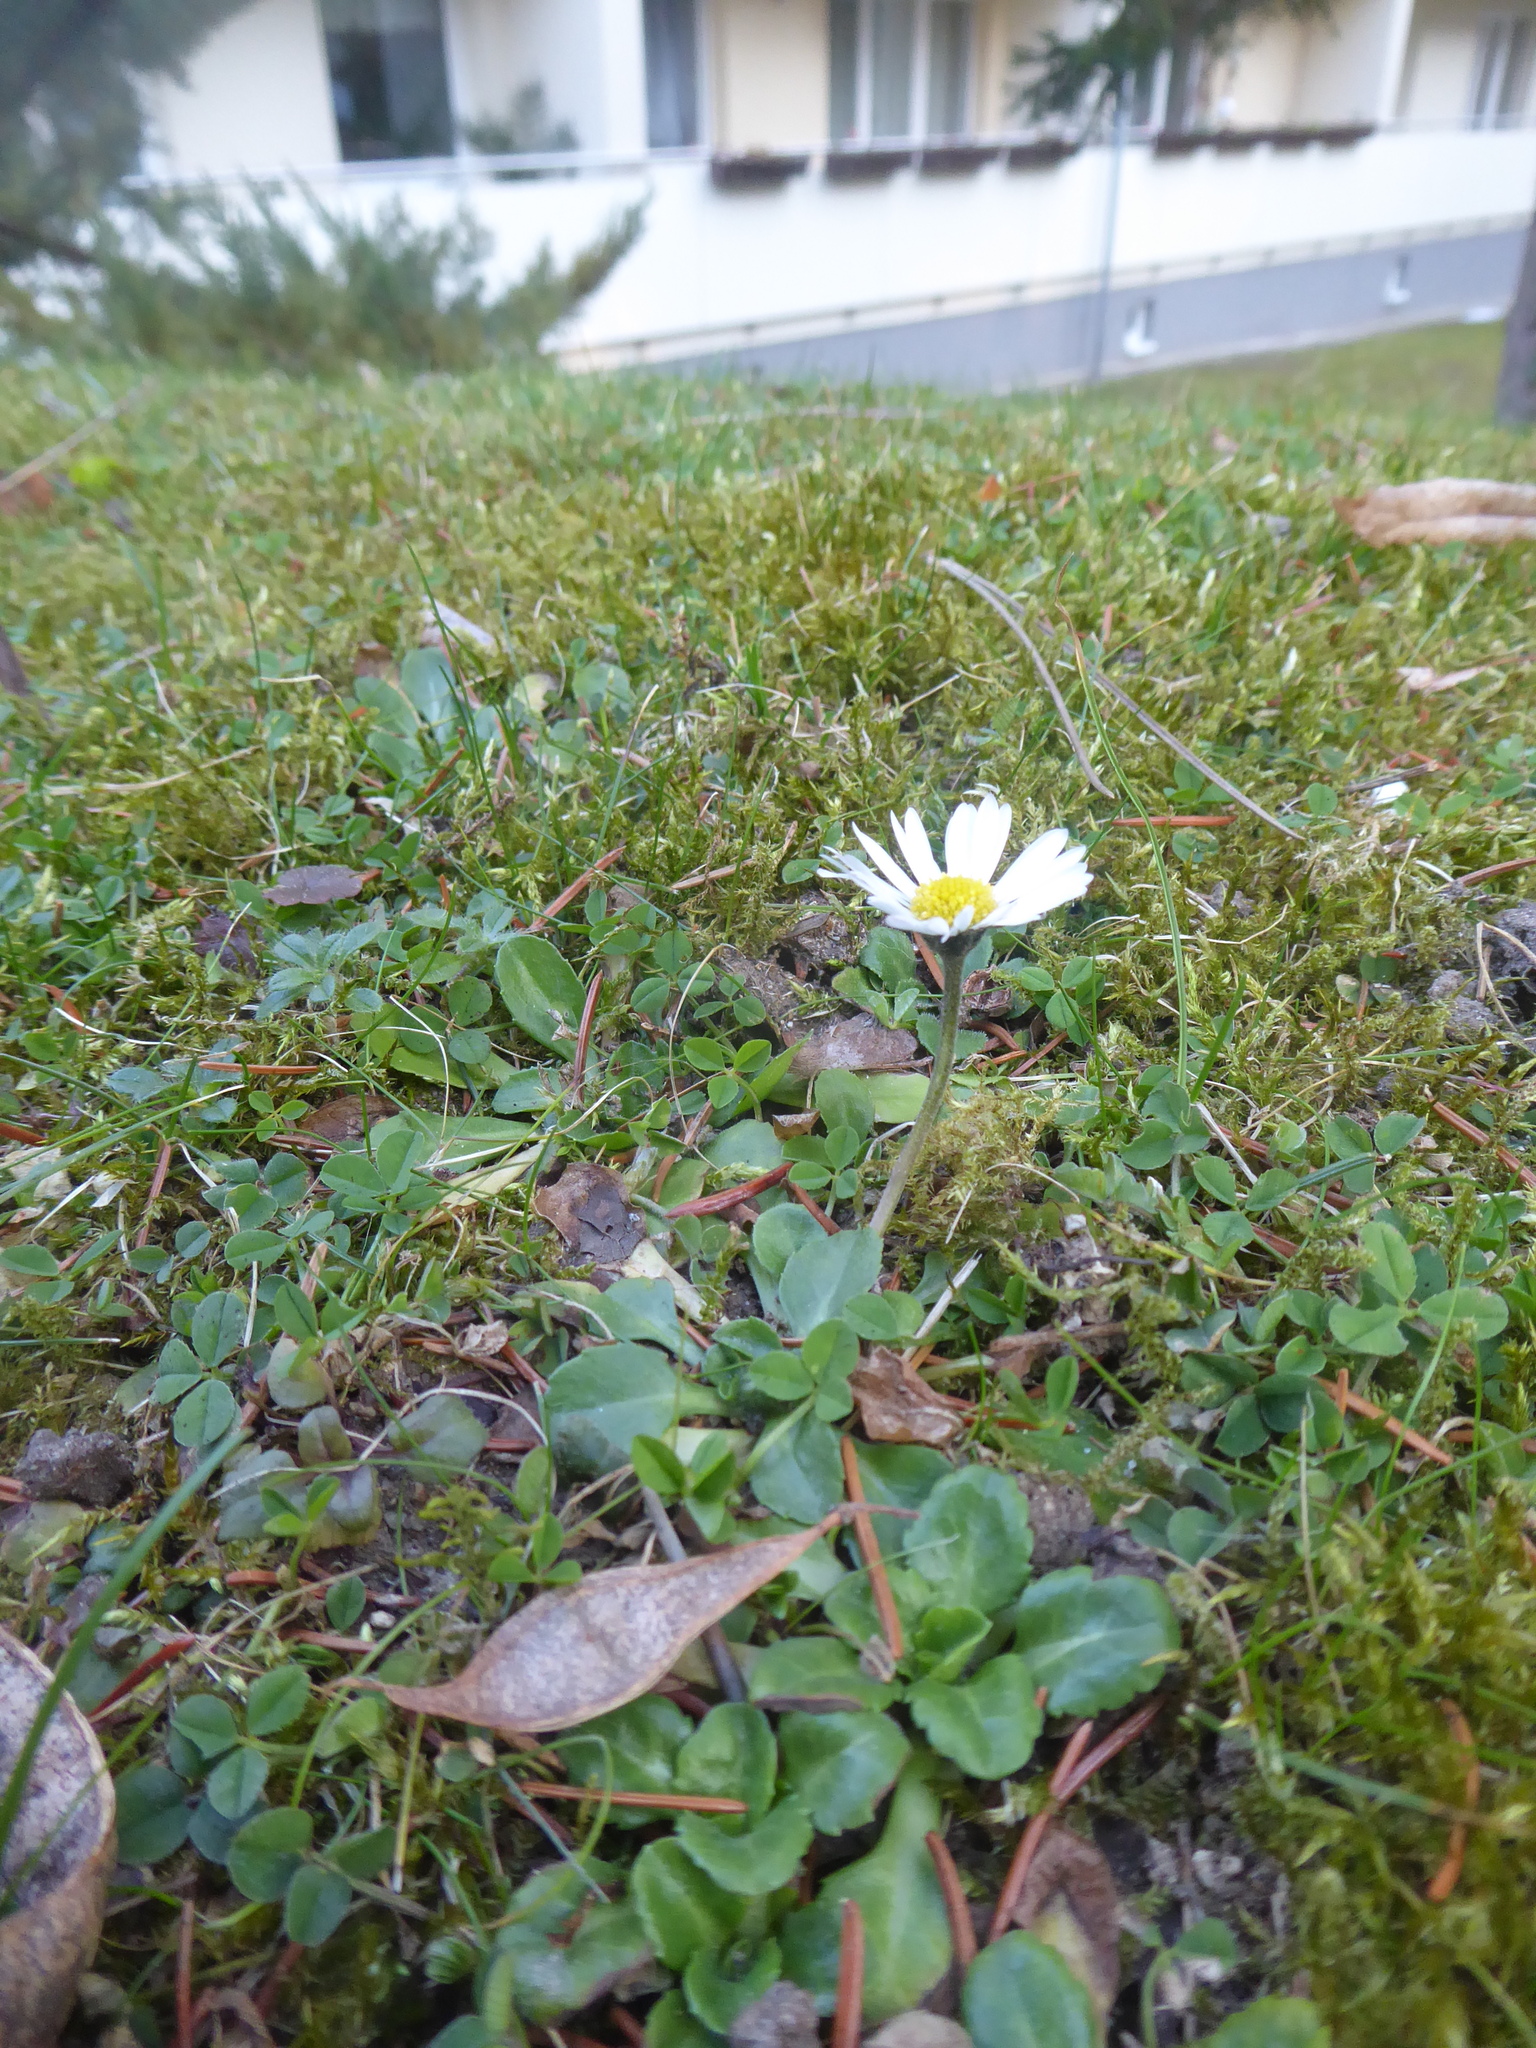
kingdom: Plantae
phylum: Tracheophyta
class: Magnoliopsida
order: Asterales
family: Asteraceae
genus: Bellis
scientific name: Bellis perennis
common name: Lawndaisy
